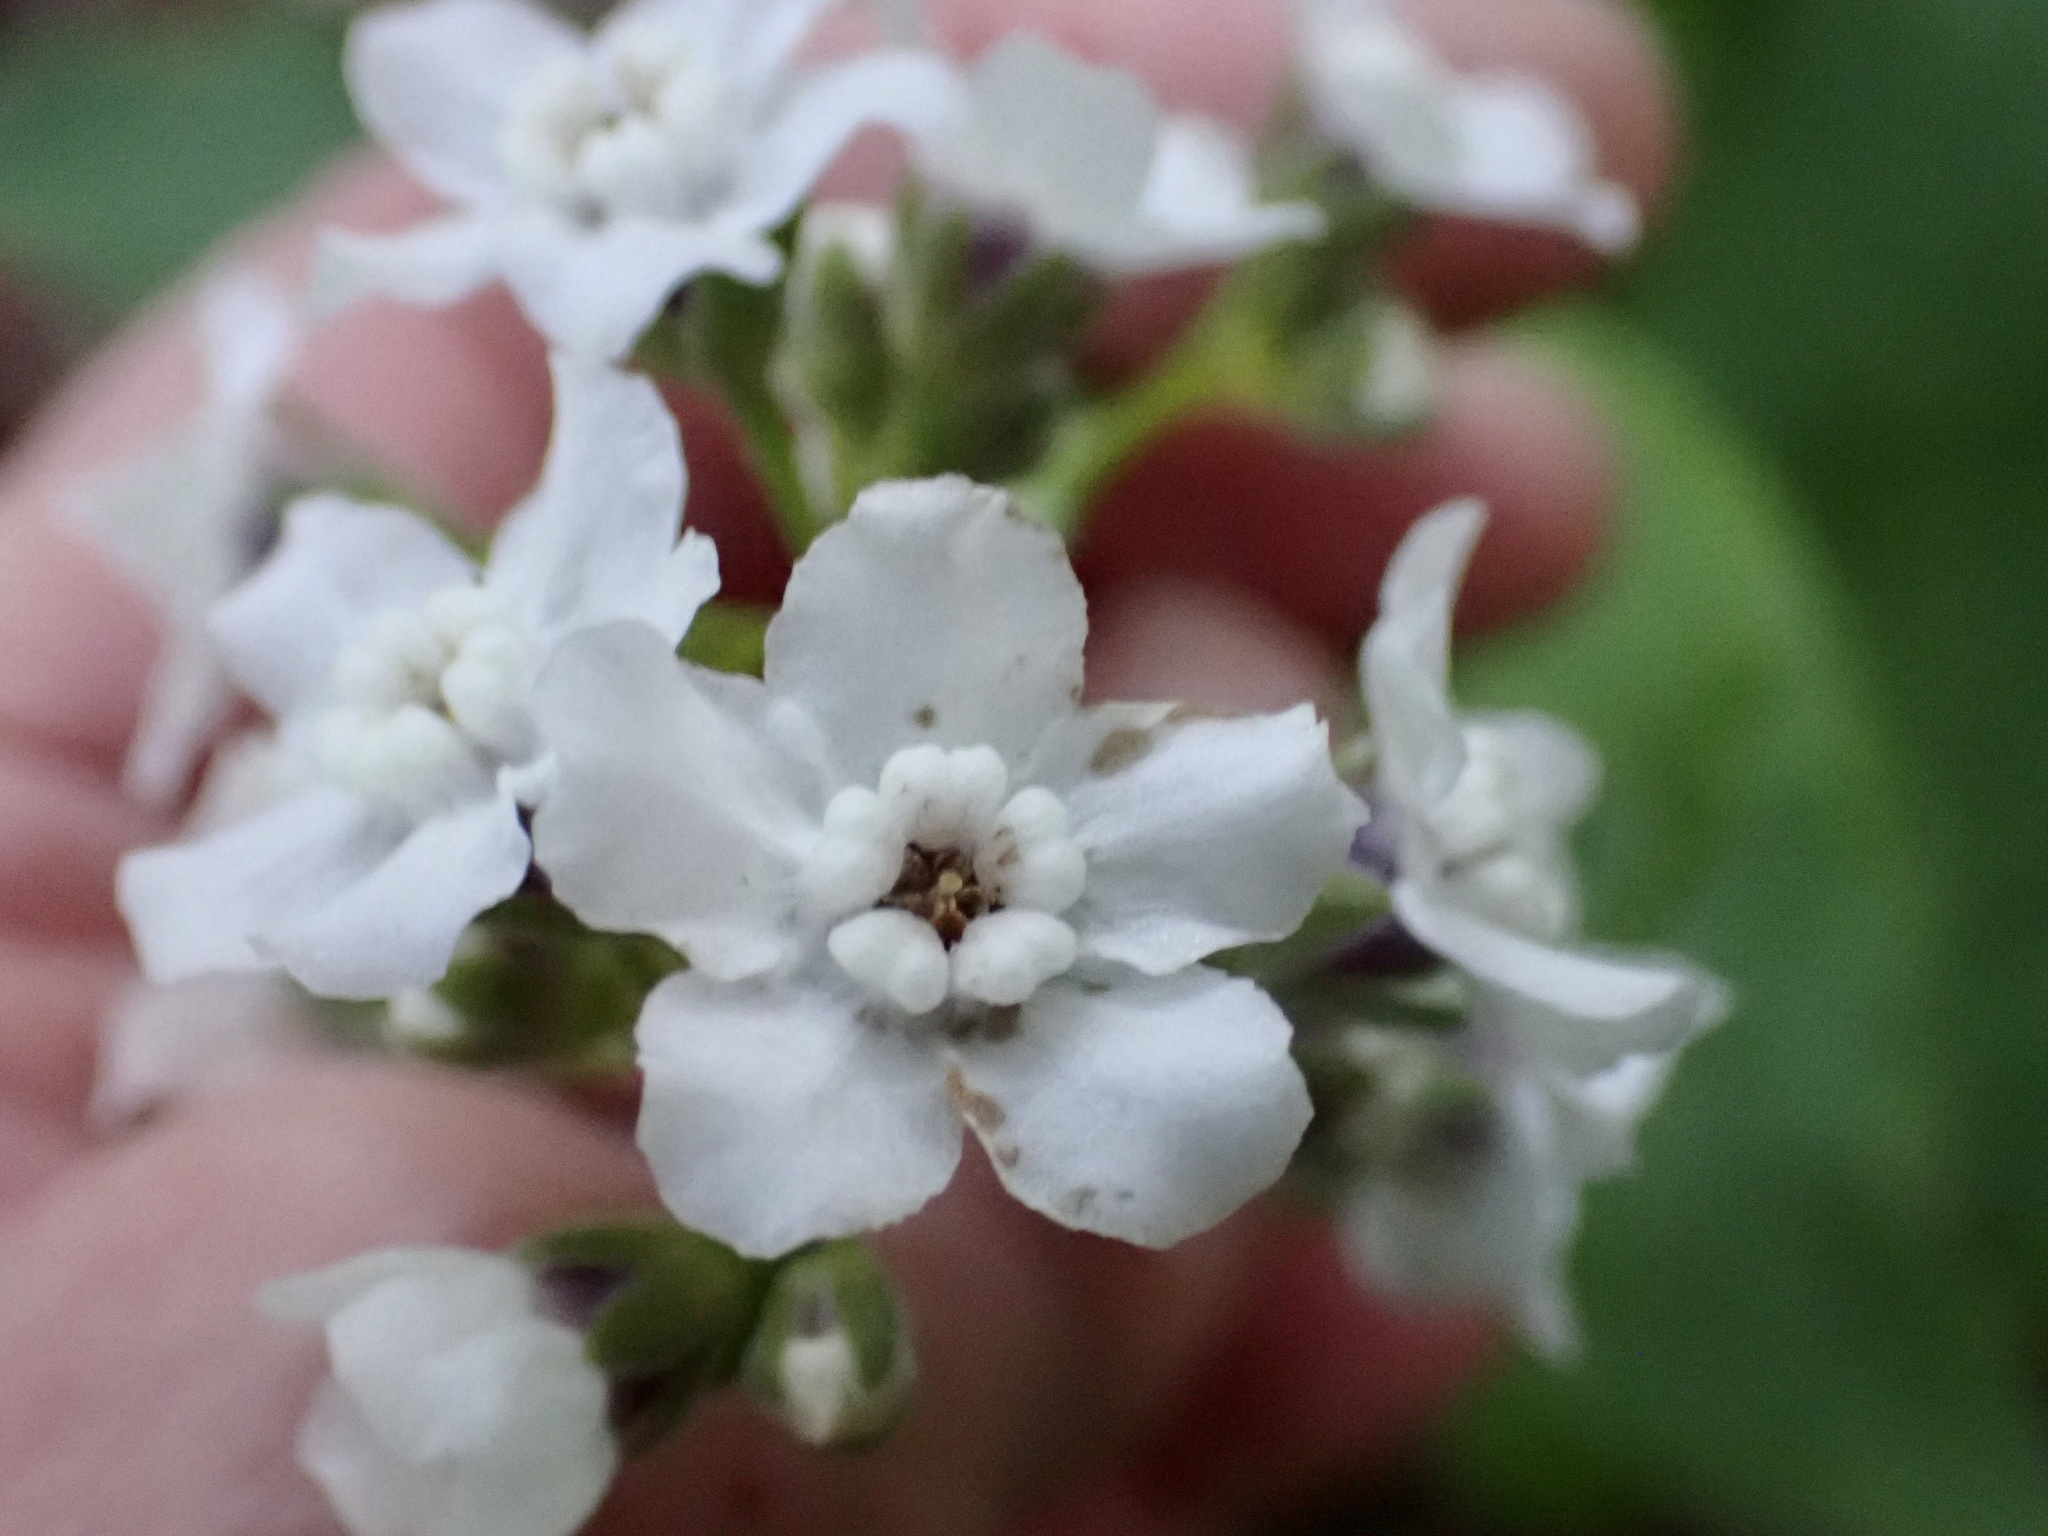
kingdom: Plantae
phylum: Tracheophyta
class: Magnoliopsida
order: Boraginales
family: Boraginaceae
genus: Adelinia
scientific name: Adelinia grande
